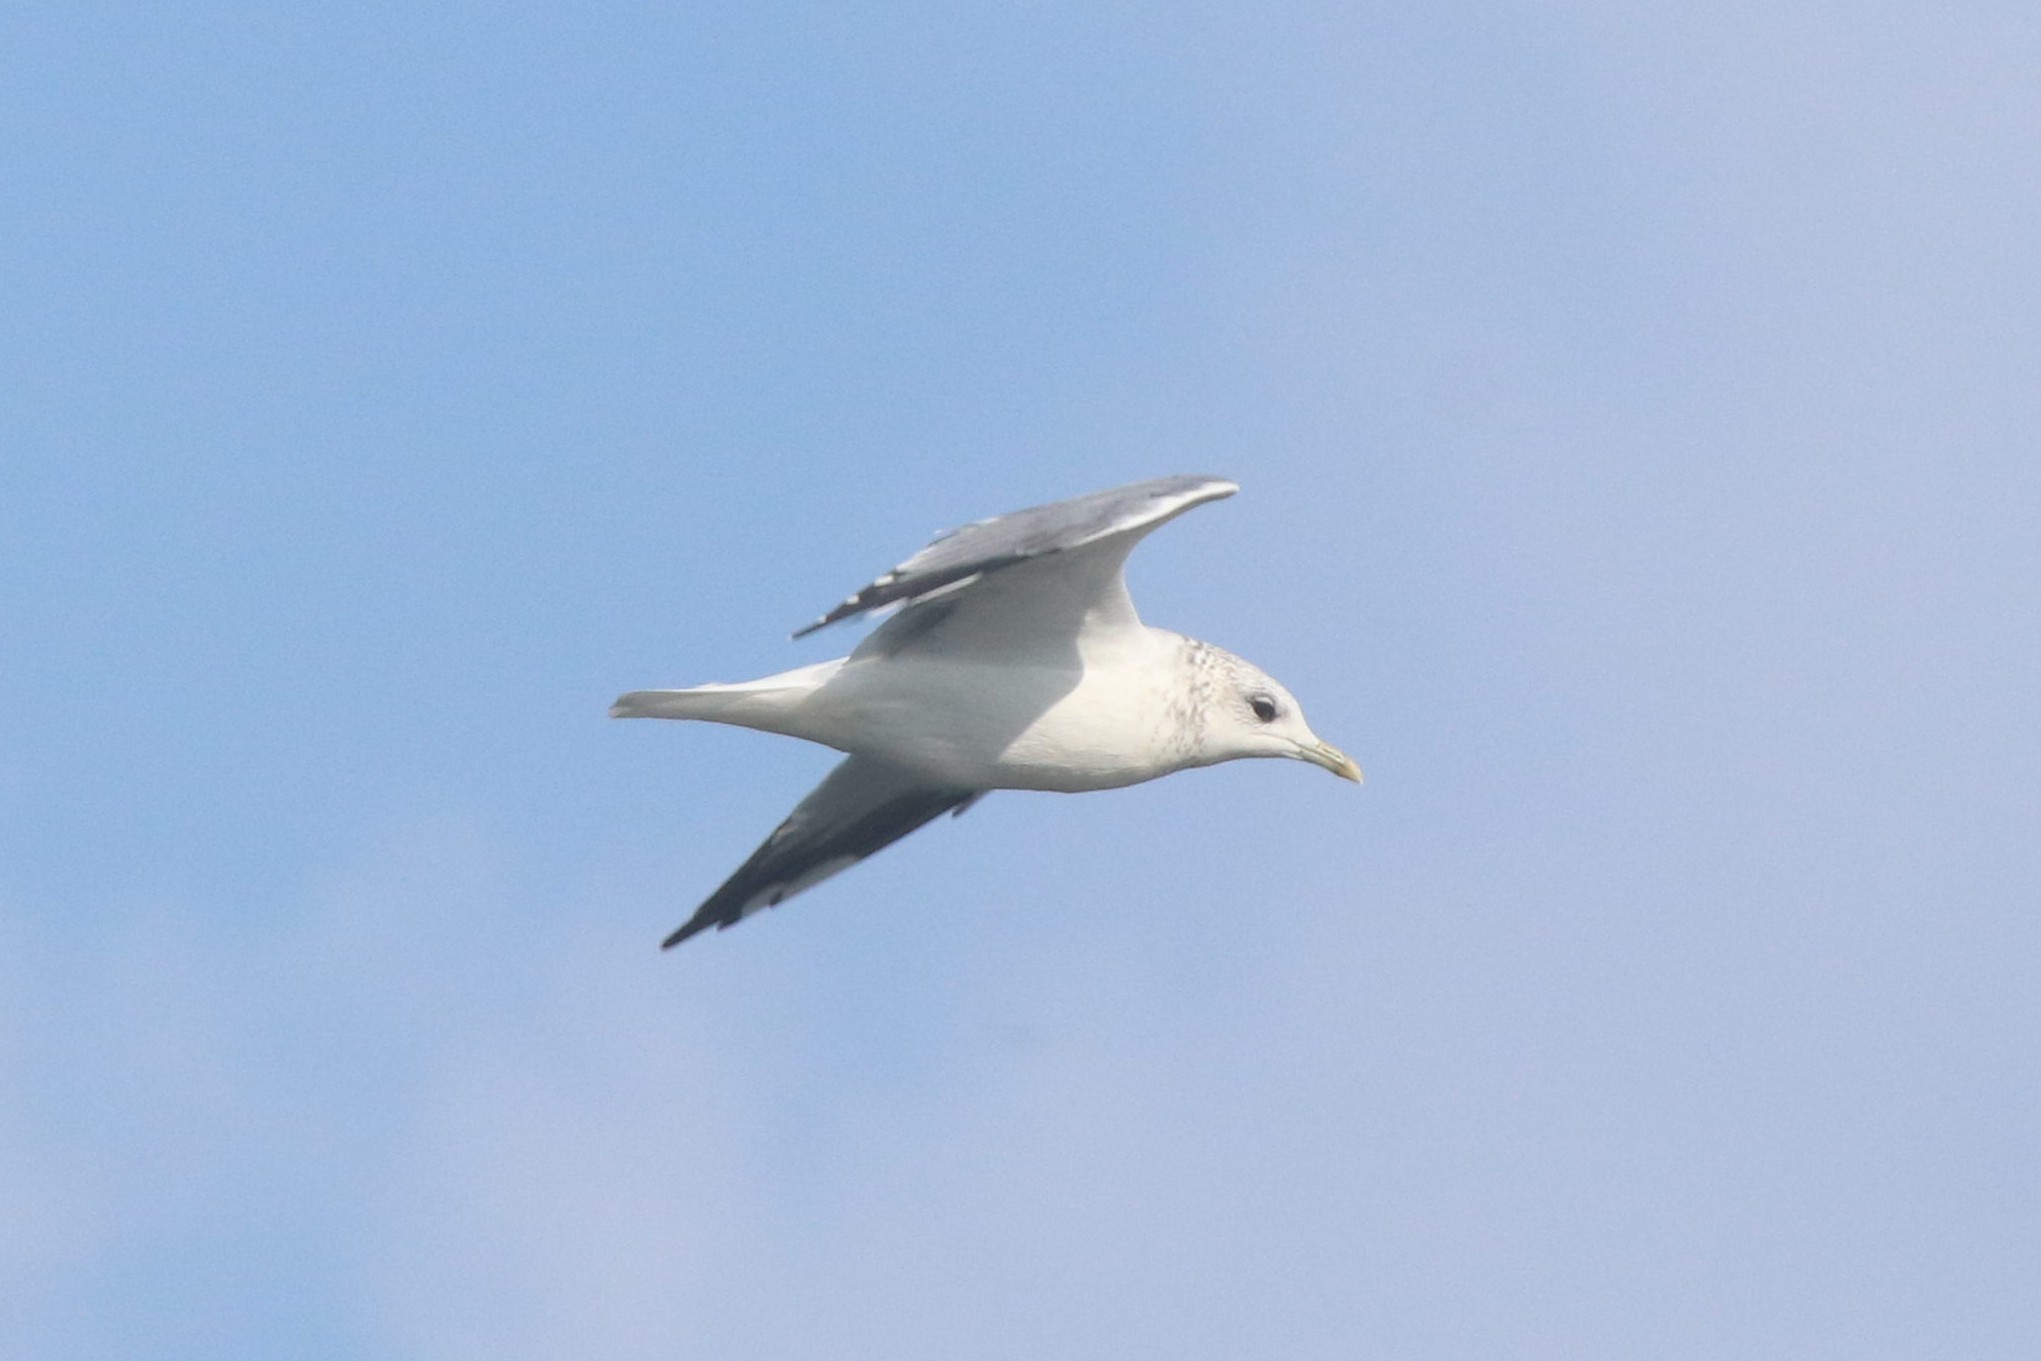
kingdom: Animalia
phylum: Chordata
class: Aves
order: Charadriiformes
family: Laridae
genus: Larus
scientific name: Larus canus
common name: Mew gull
